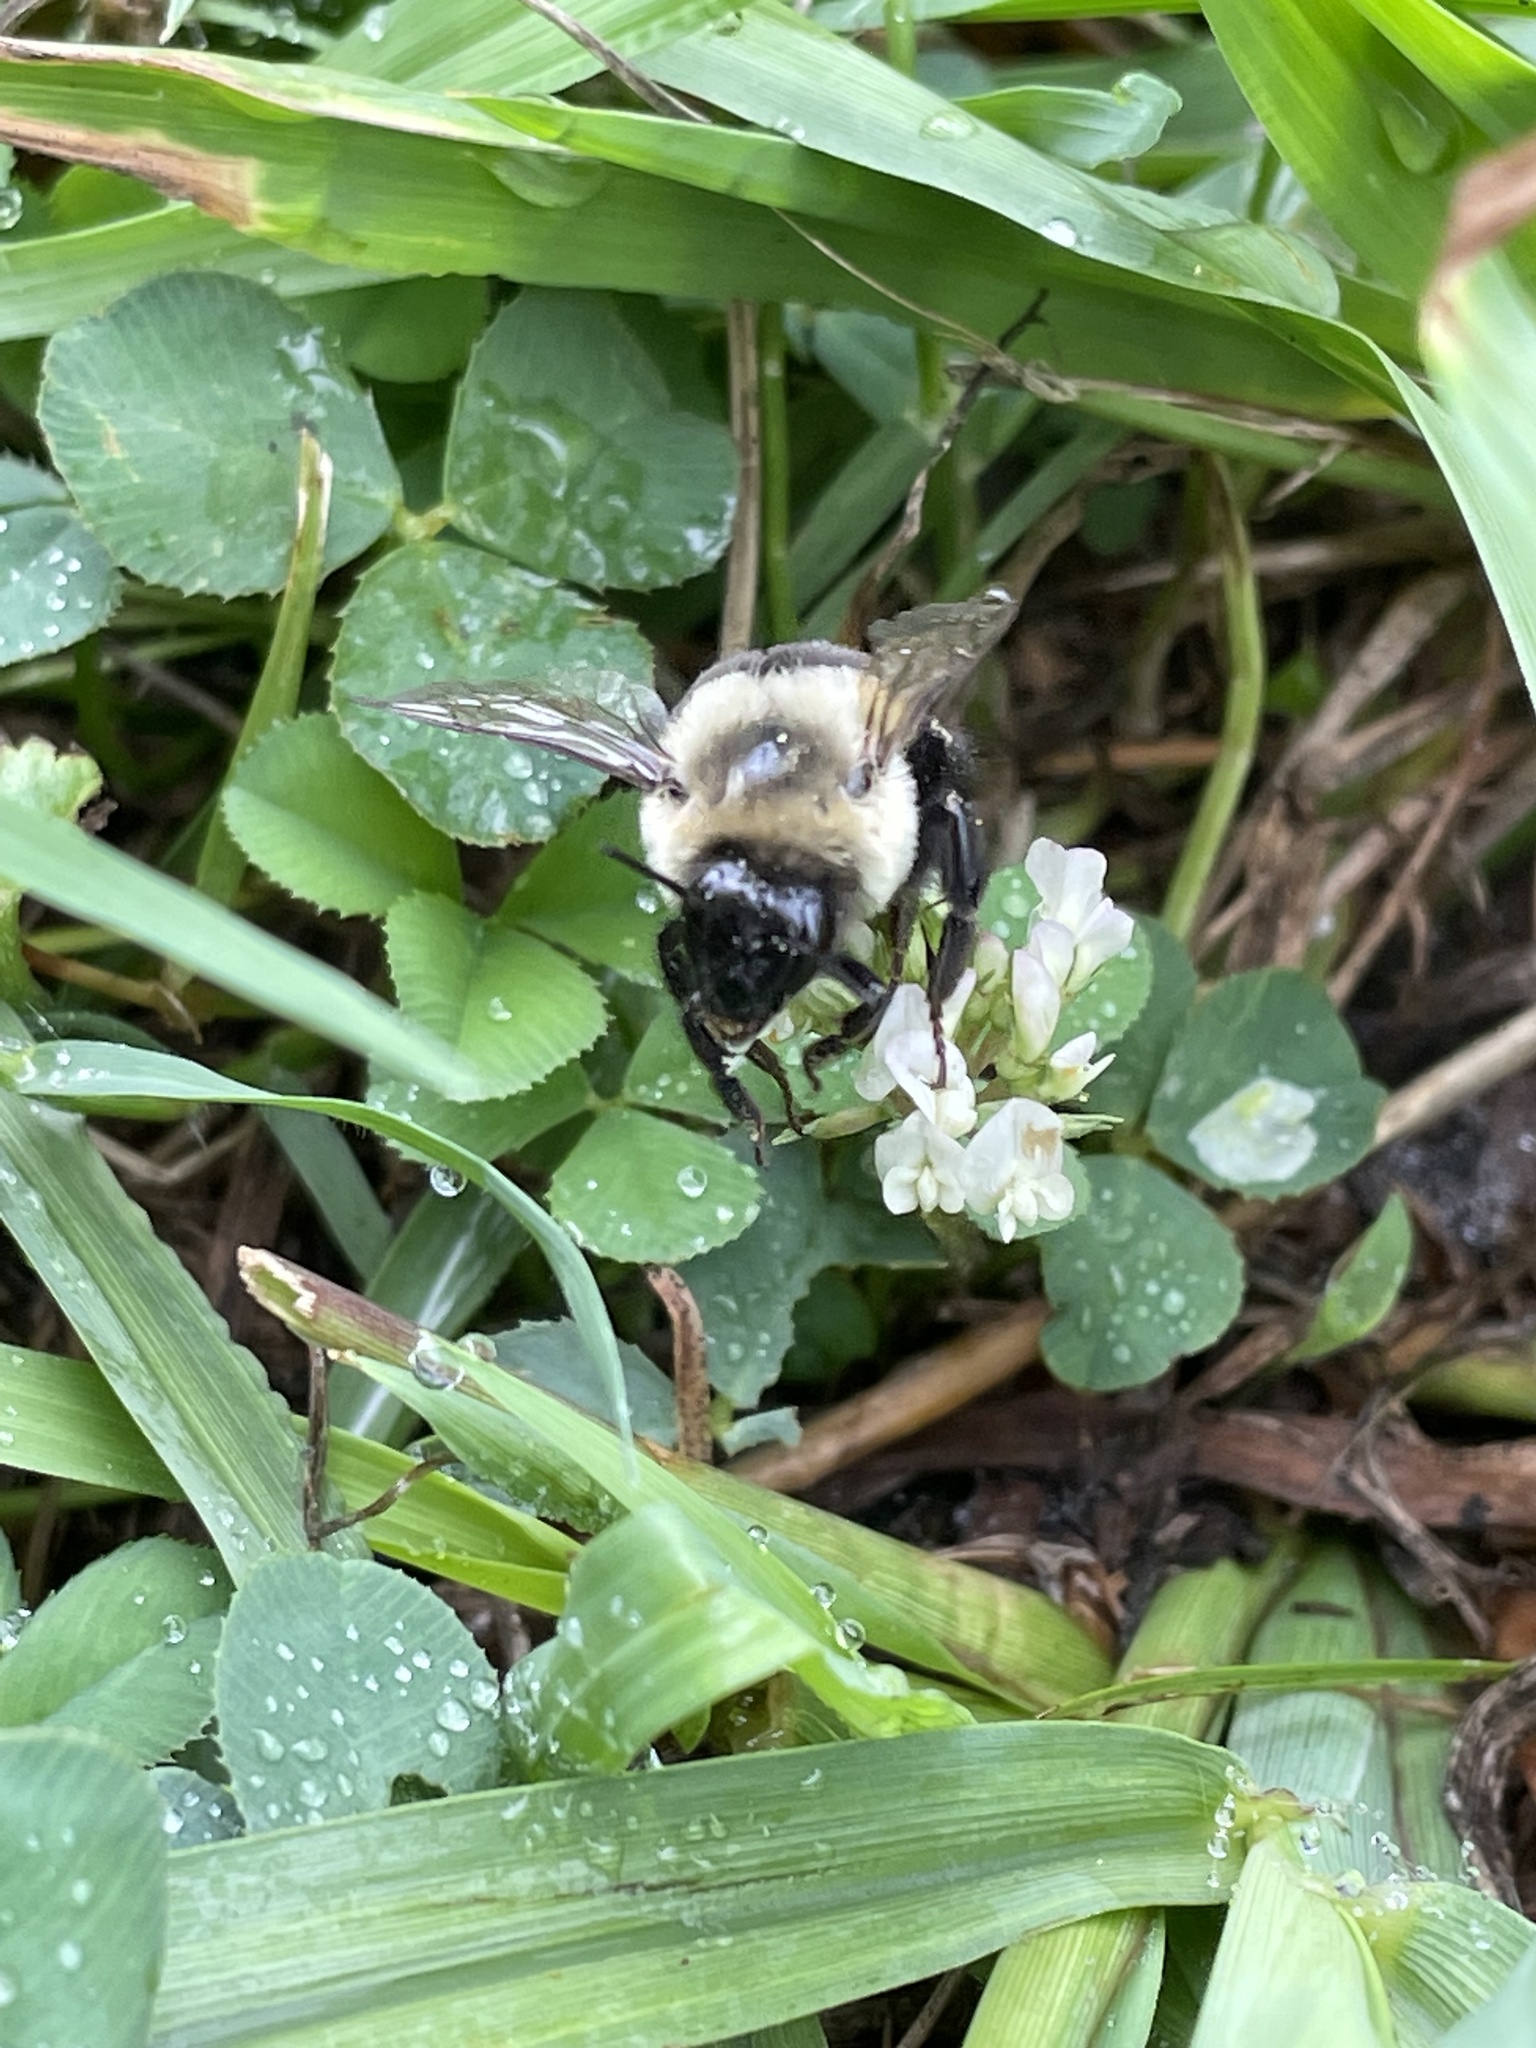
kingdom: Animalia
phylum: Arthropoda
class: Insecta
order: Hymenoptera
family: Apidae
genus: Bombus
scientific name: Bombus impatiens
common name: Common eastern bumble bee
